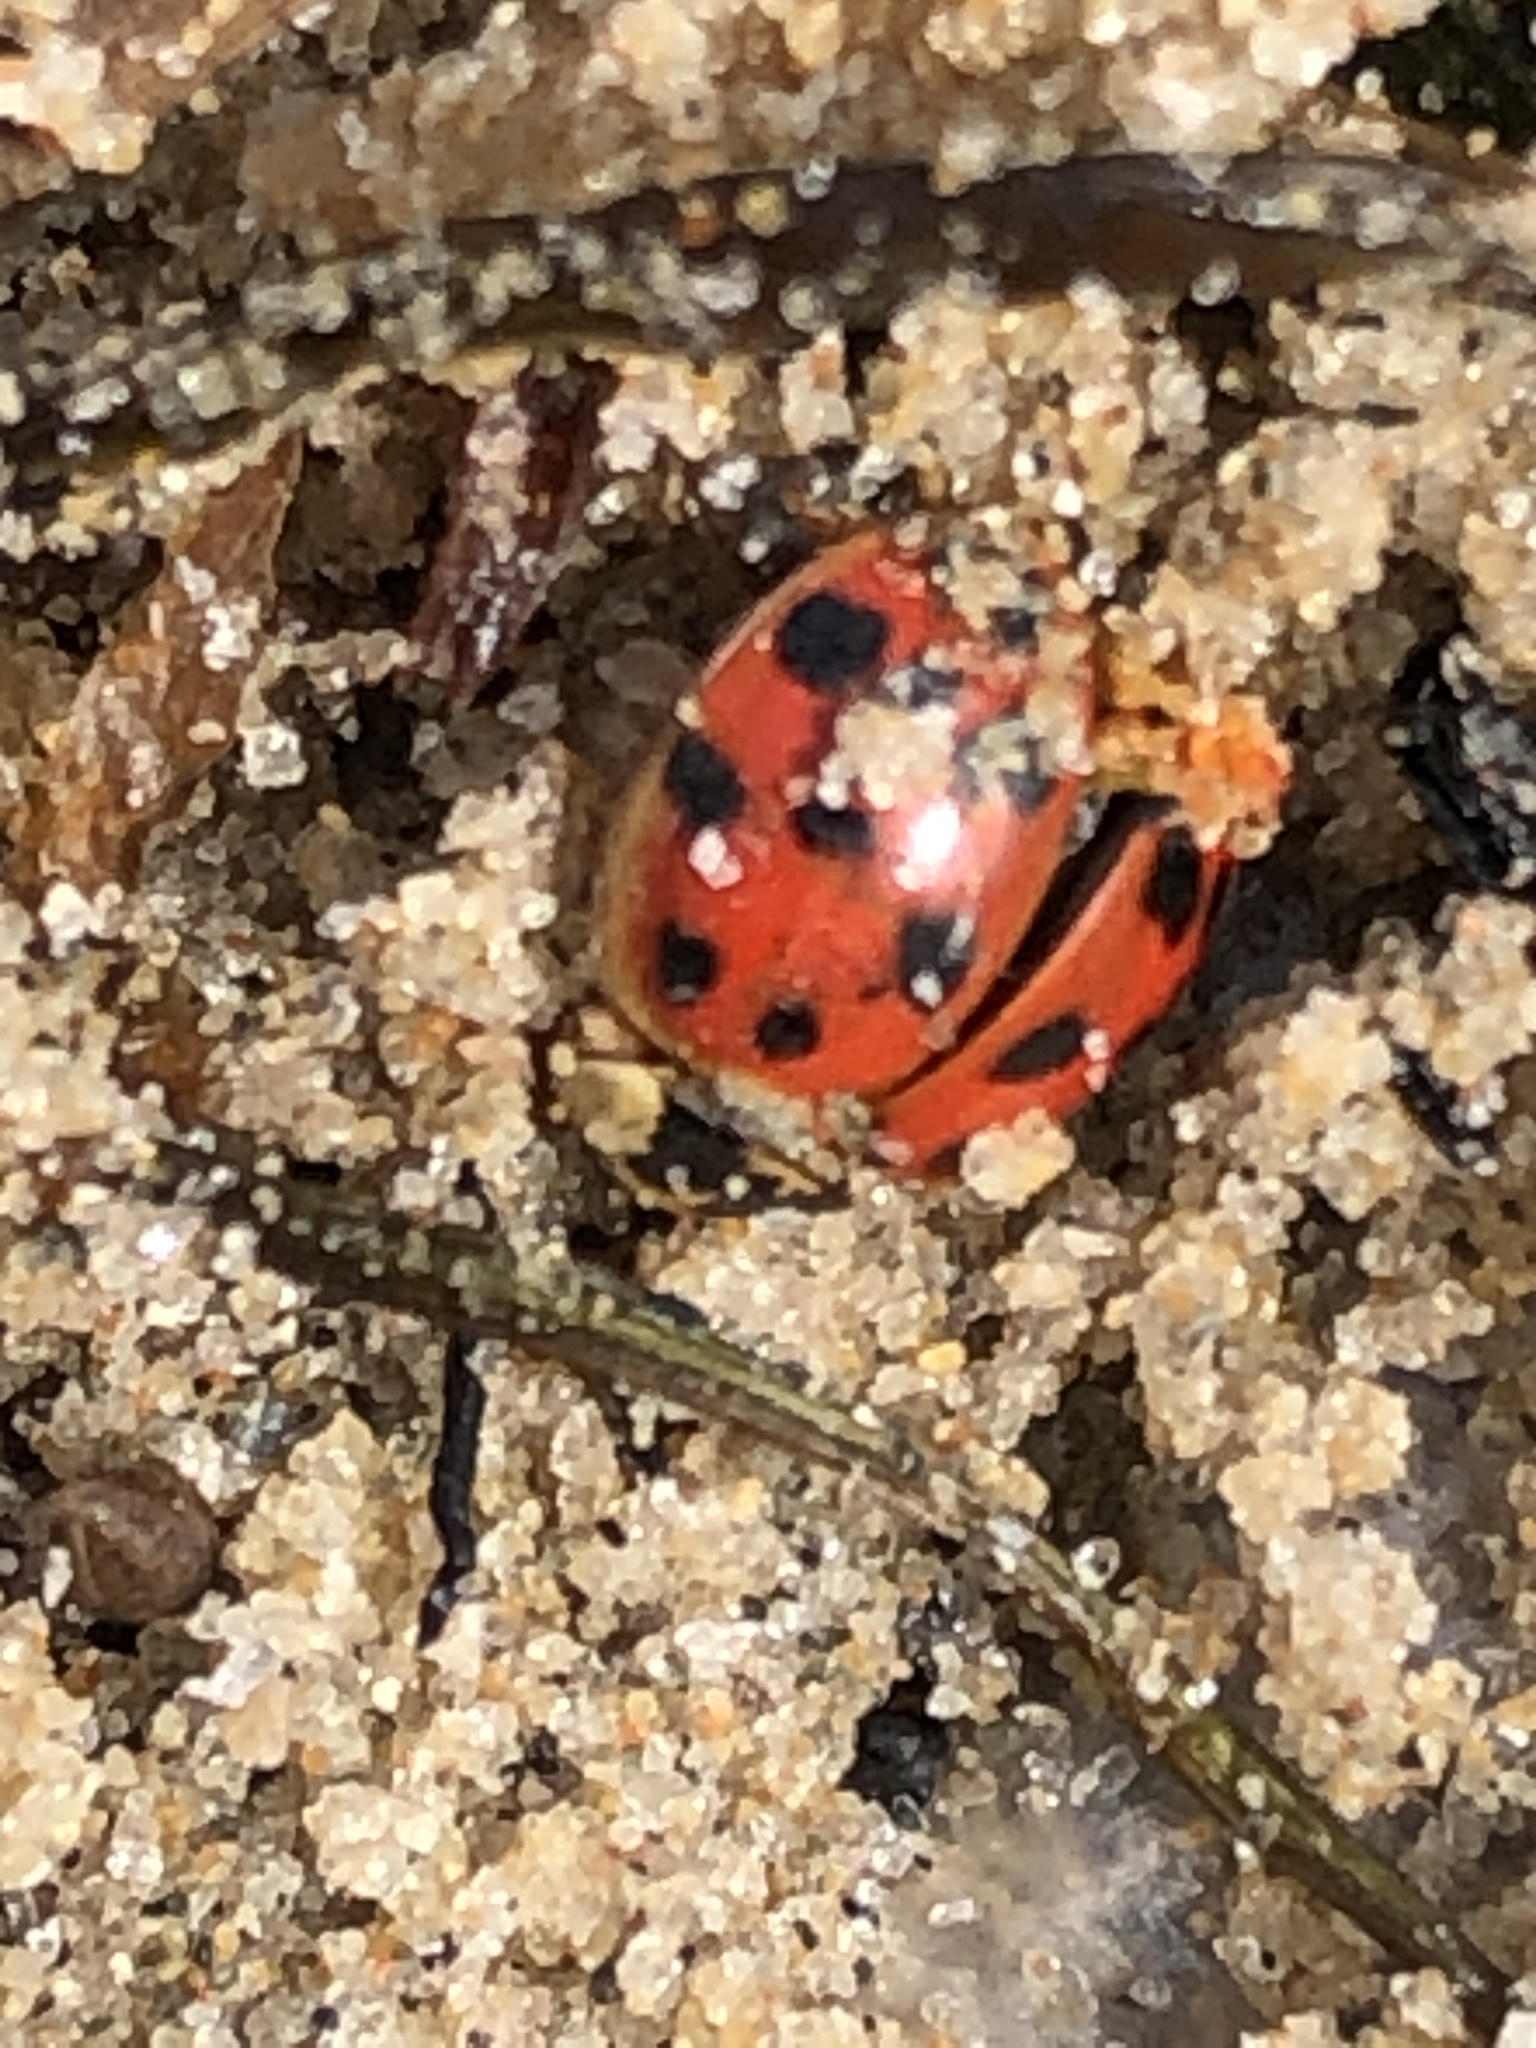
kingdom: Animalia
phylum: Arthropoda
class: Insecta
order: Coleoptera
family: Coccinellidae
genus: Harmonia
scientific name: Harmonia axyridis
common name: Harlequin ladybird
